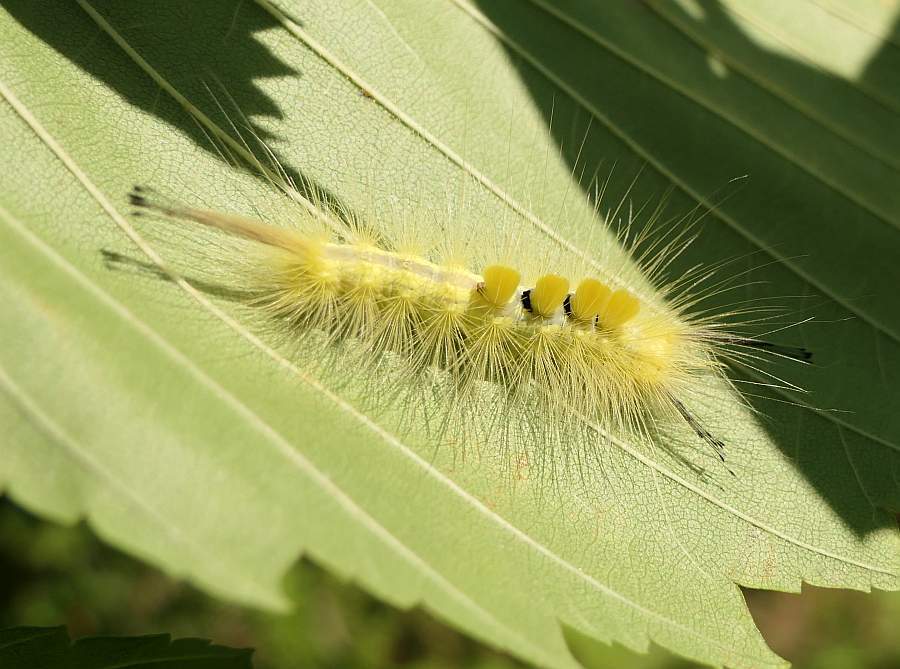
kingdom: Animalia
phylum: Arthropoda
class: Insecta
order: Lepidoptera
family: Erebidae
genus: Orgyia
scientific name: Orgyia definita
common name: Definite tussock moth
